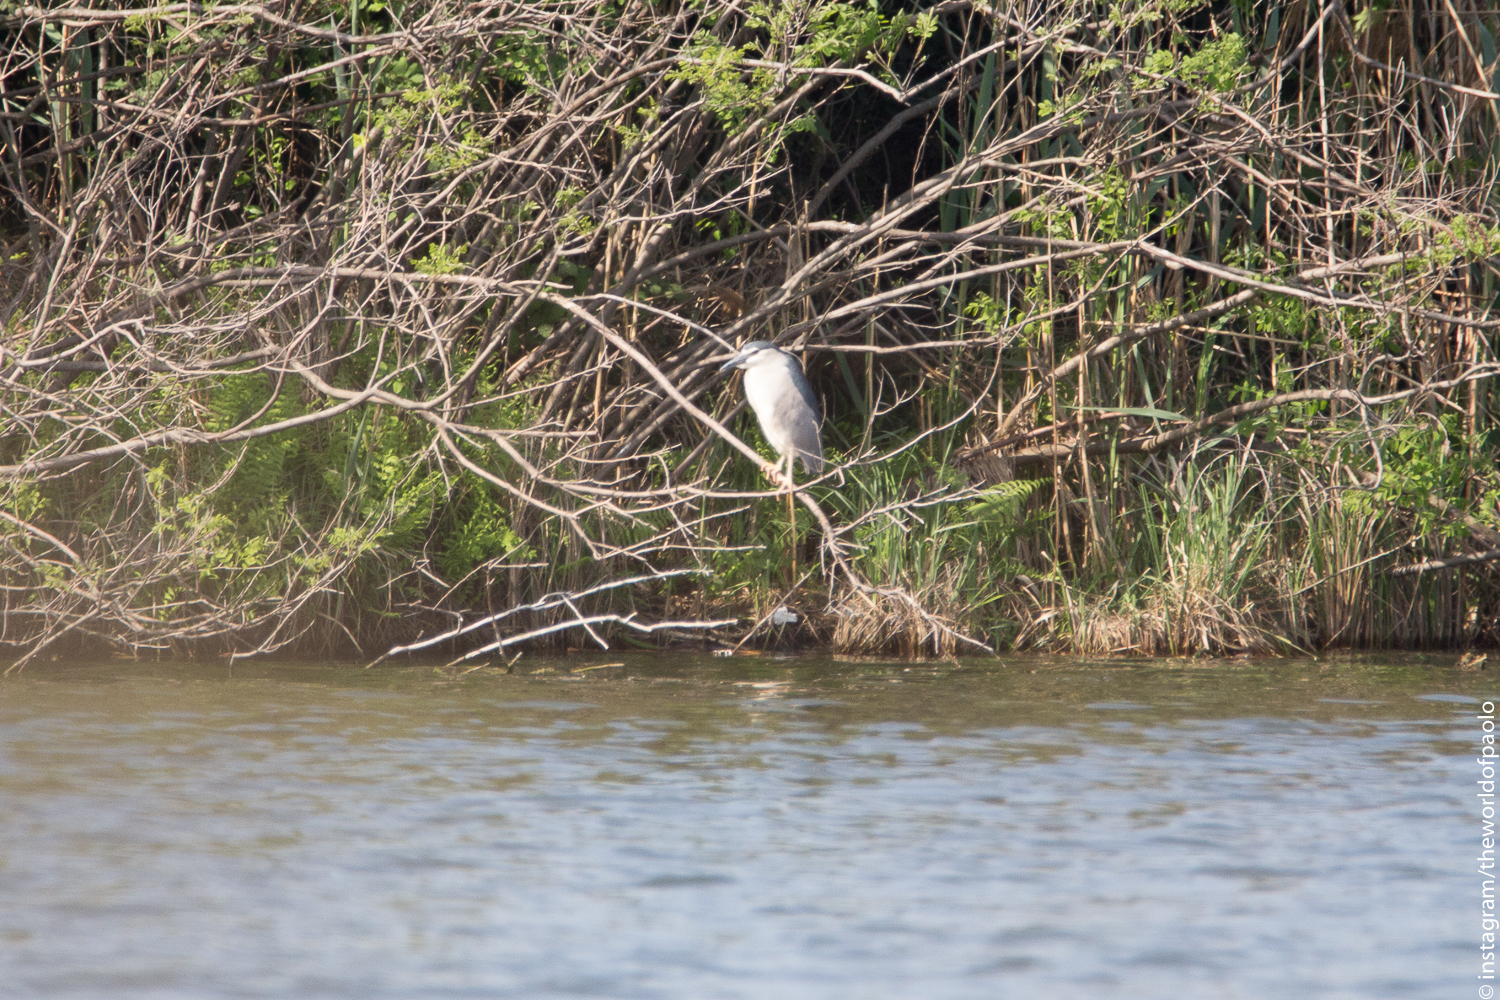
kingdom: Animalia
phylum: Chordata
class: Aves
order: Pelecaniformes
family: Ardeidae
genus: Nycticorax
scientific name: Nycticorax nycticorax
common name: Black-crowned night heron
